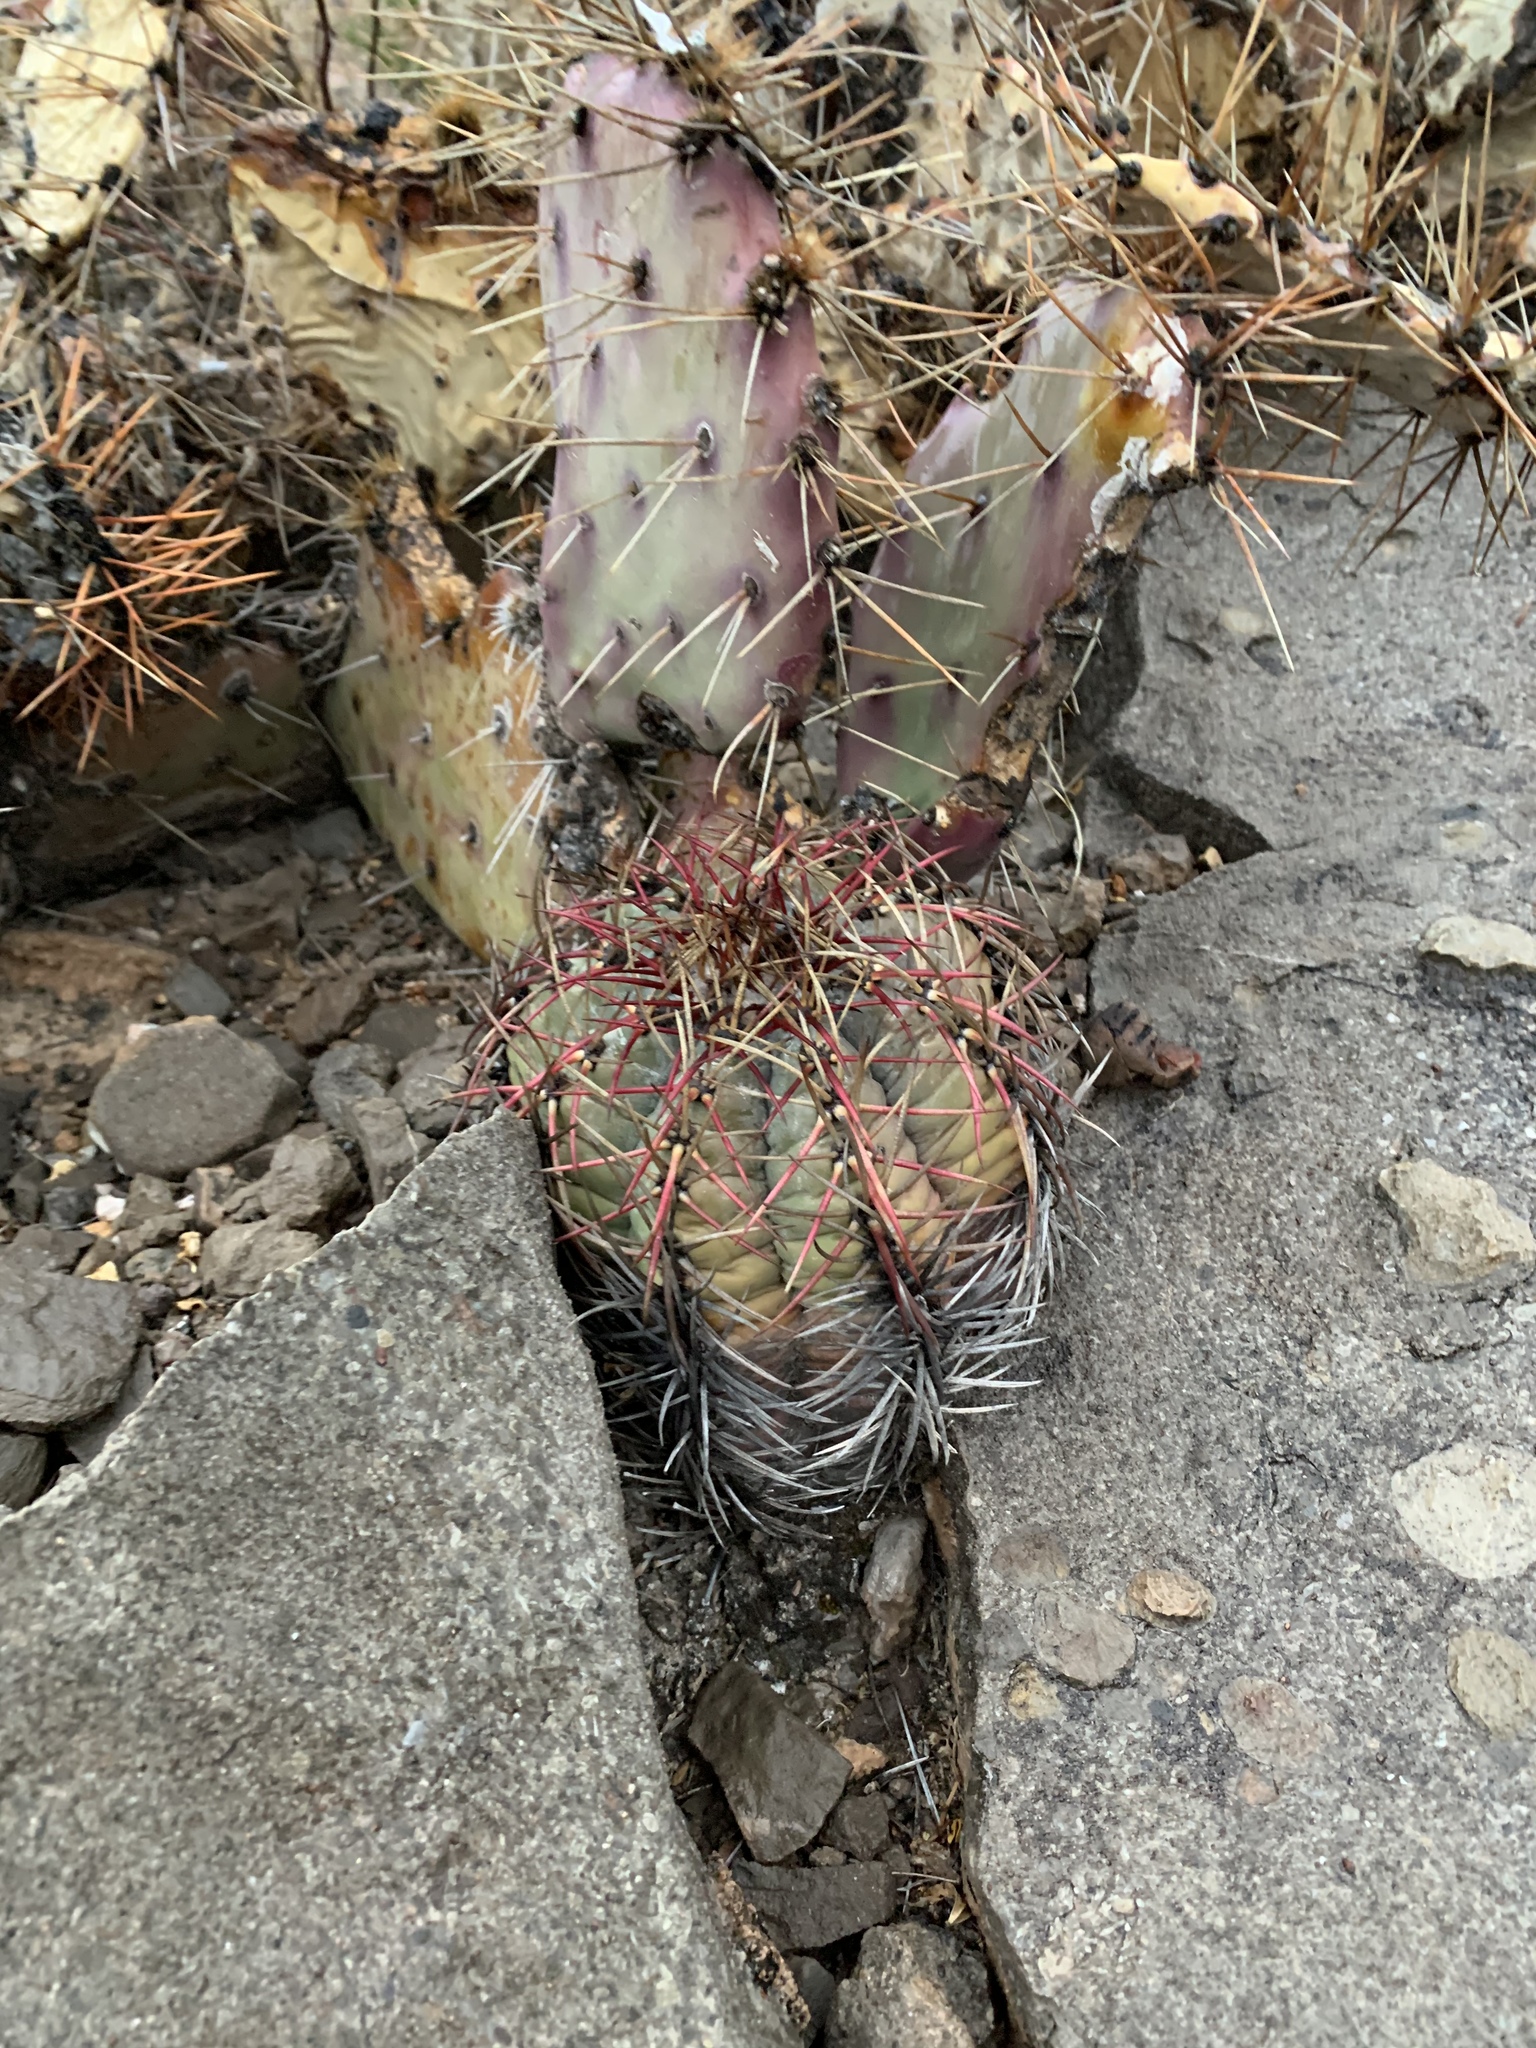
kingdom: Plantae
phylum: Tracheophyta
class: Magnoliopsida
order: Caryophyllales
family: Cactaceae
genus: Echinocactus
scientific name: Echinocactus horizonthalonius
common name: Devilshead
